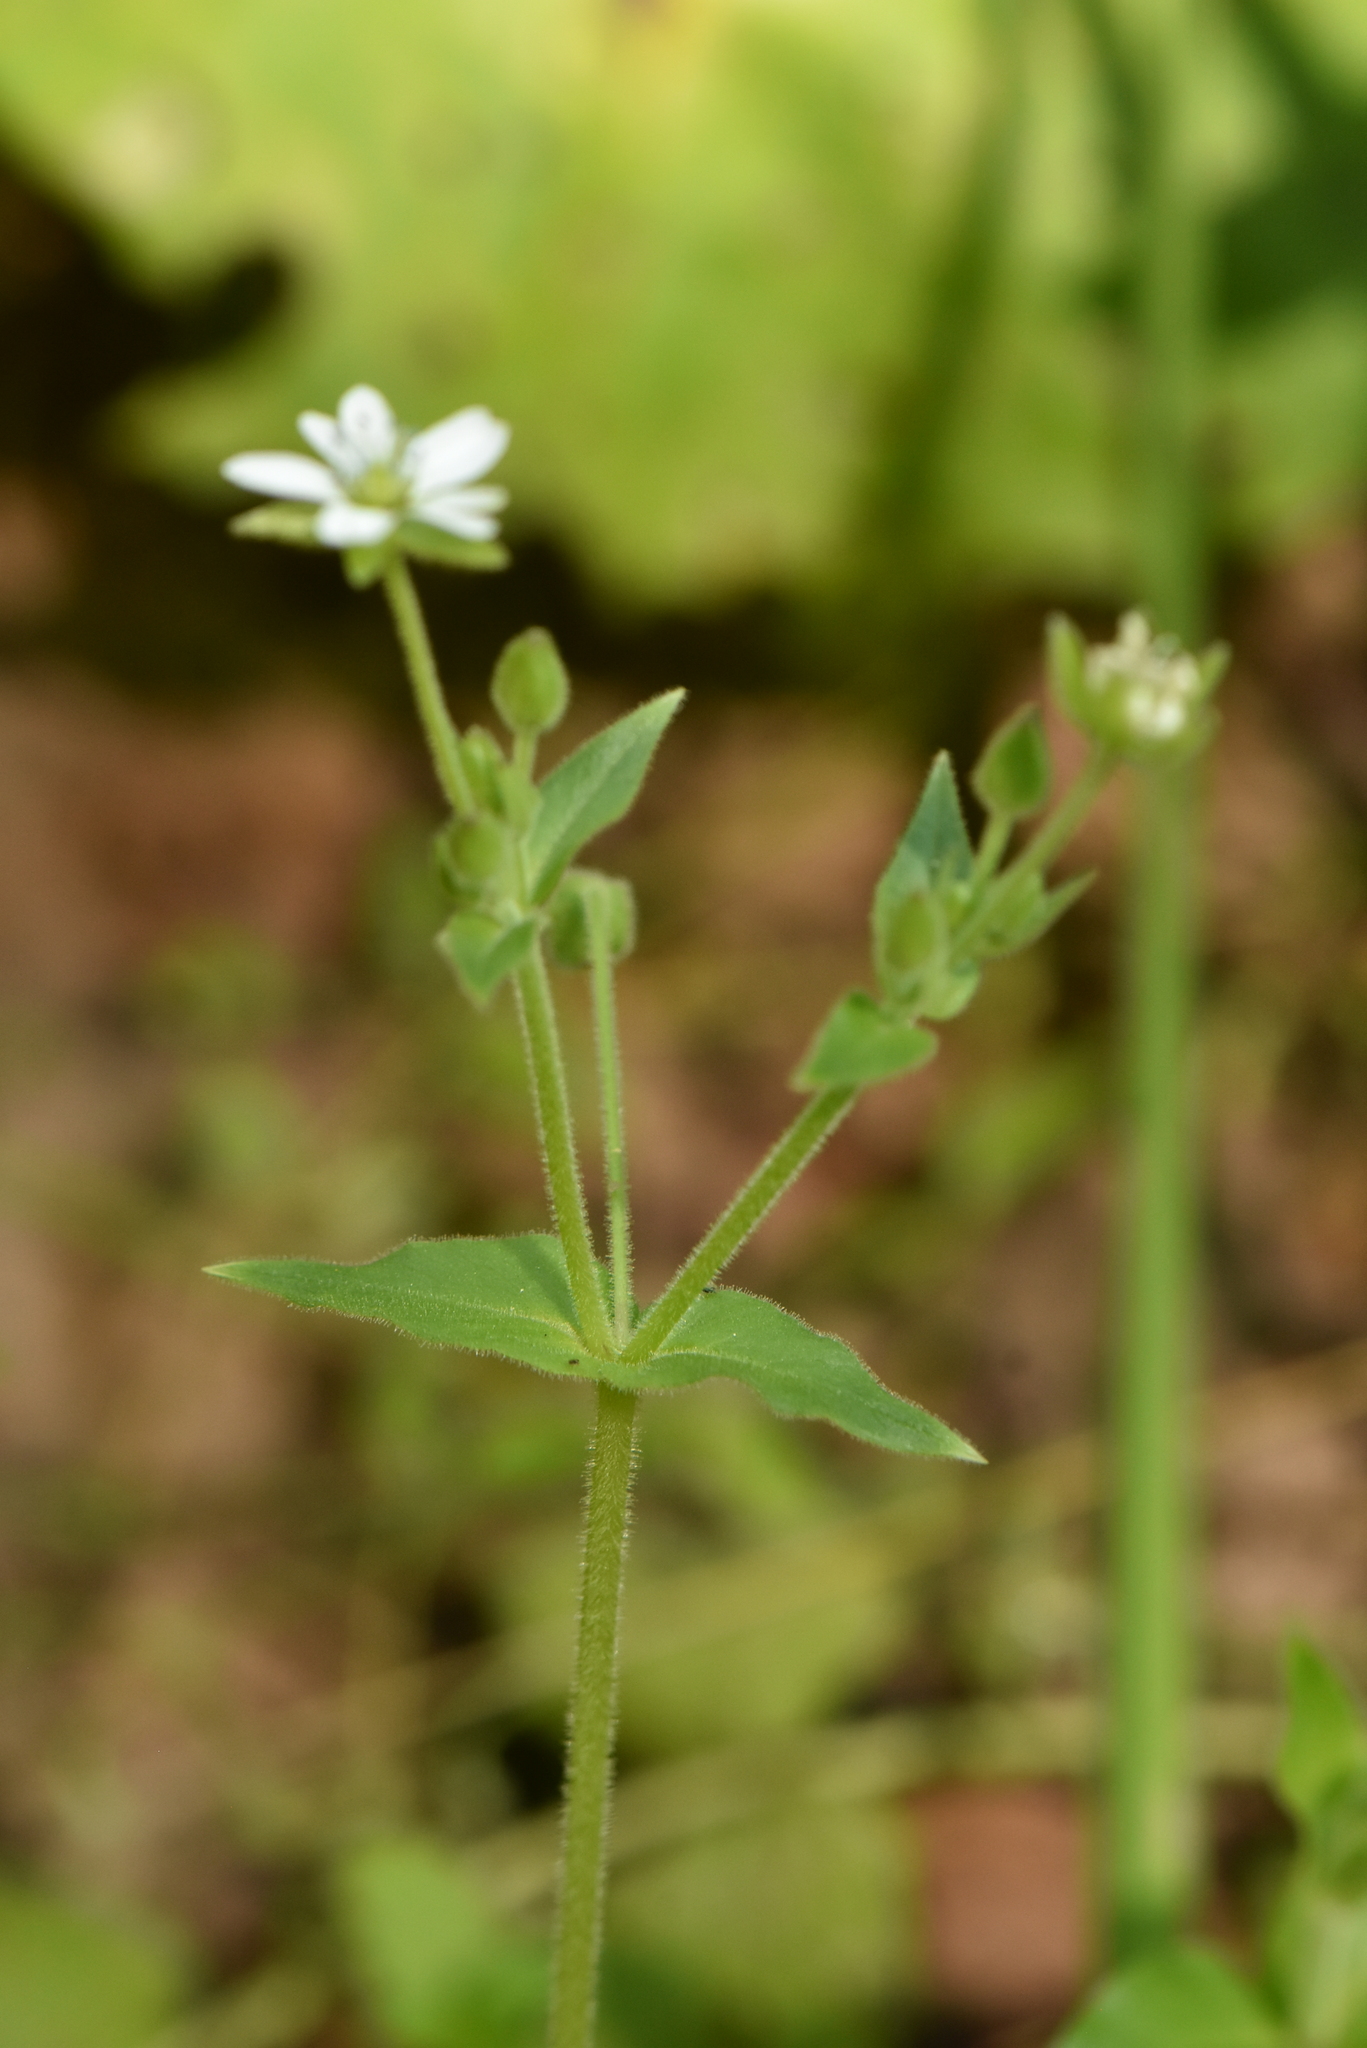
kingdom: Plantae
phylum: Tracheophyta
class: Magnoliopsida
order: Caryophyllales
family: Caryophyllaceae
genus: Stellaria
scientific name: Stellaria aquatica
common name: Water chickweed
